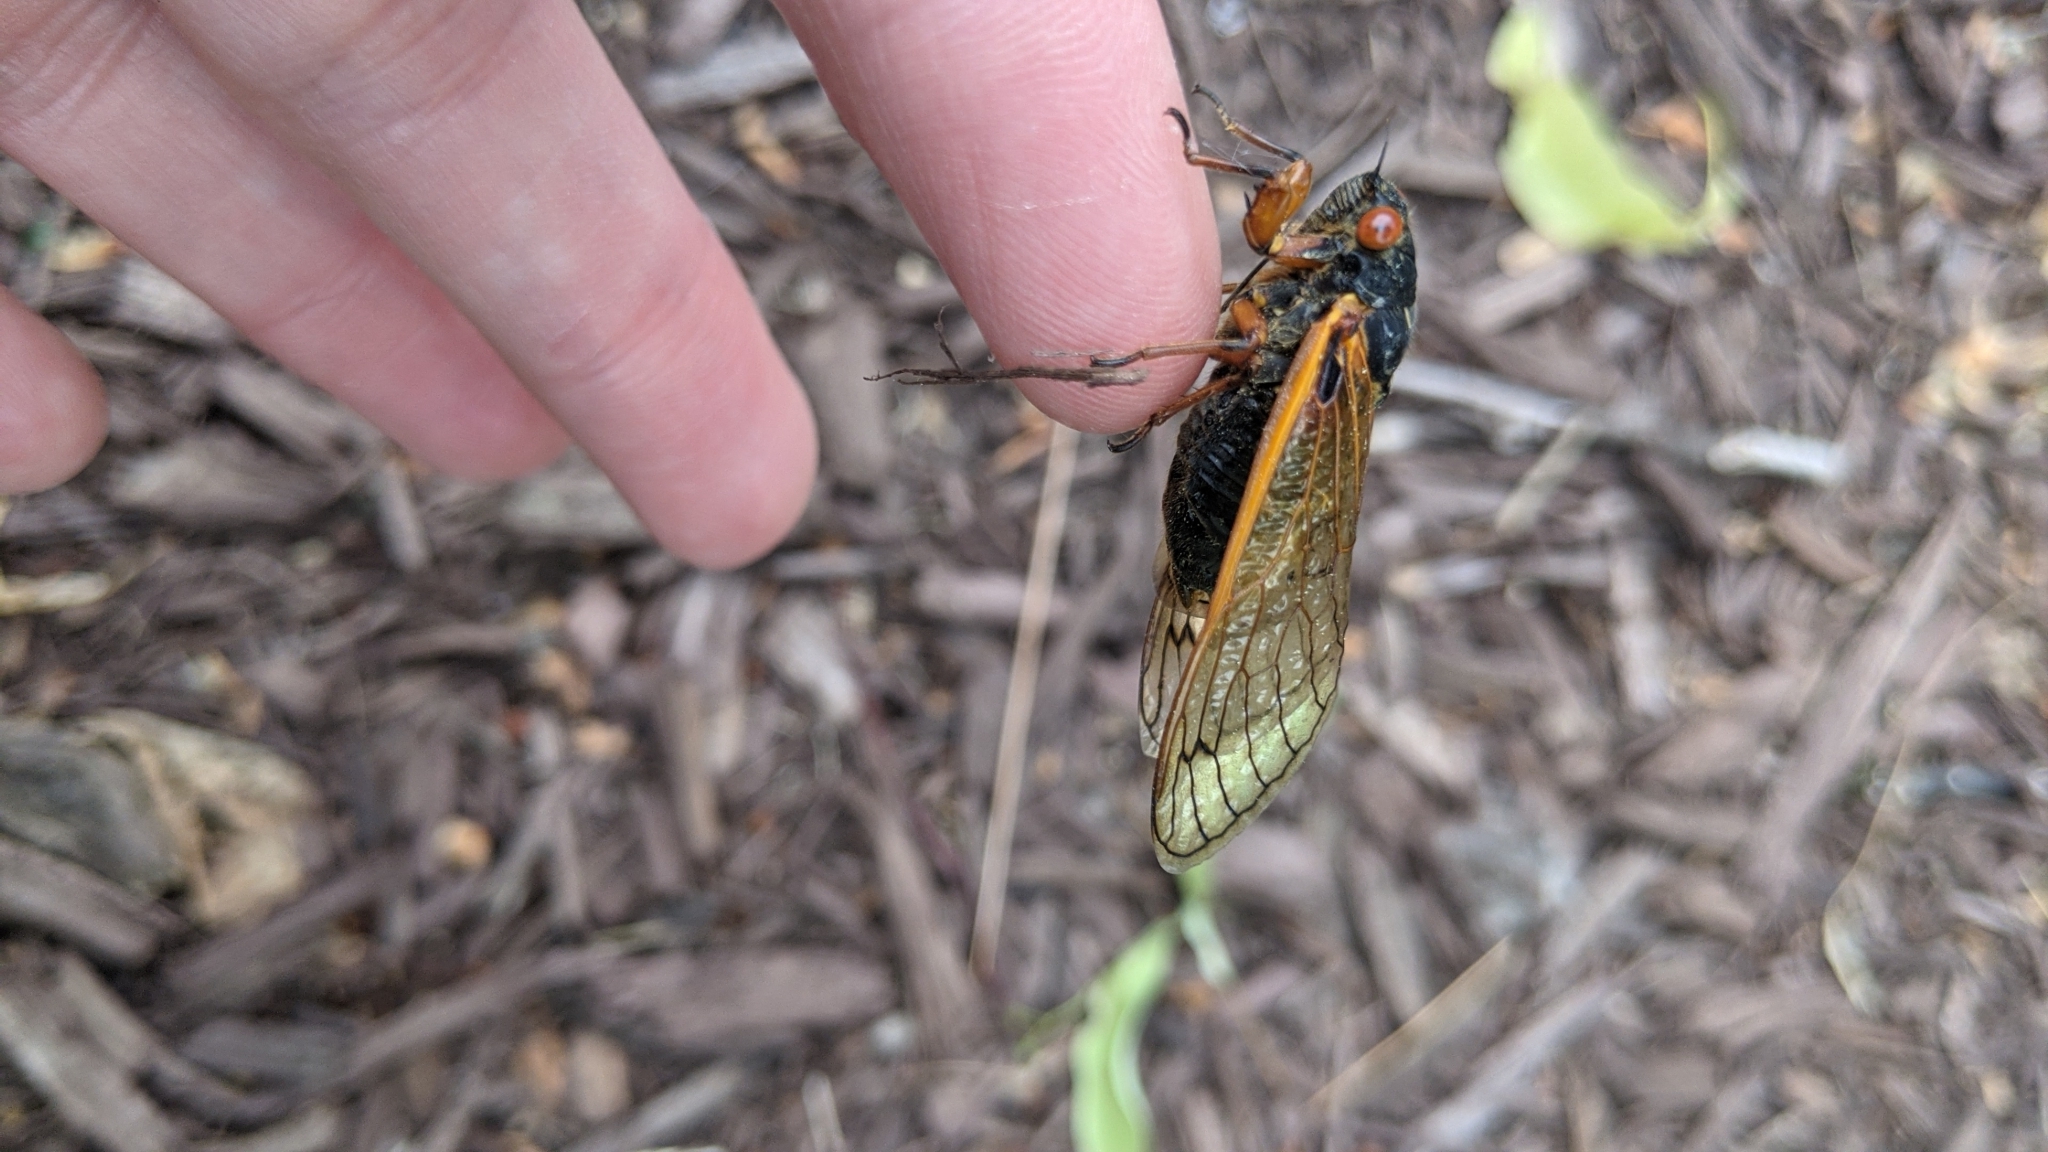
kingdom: Animalia
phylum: Arthropoda
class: Insecta
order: Hemiptera
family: Cicadidae
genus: Magicicada
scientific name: Magicicada cassini
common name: Cassin's 17-year cicada
